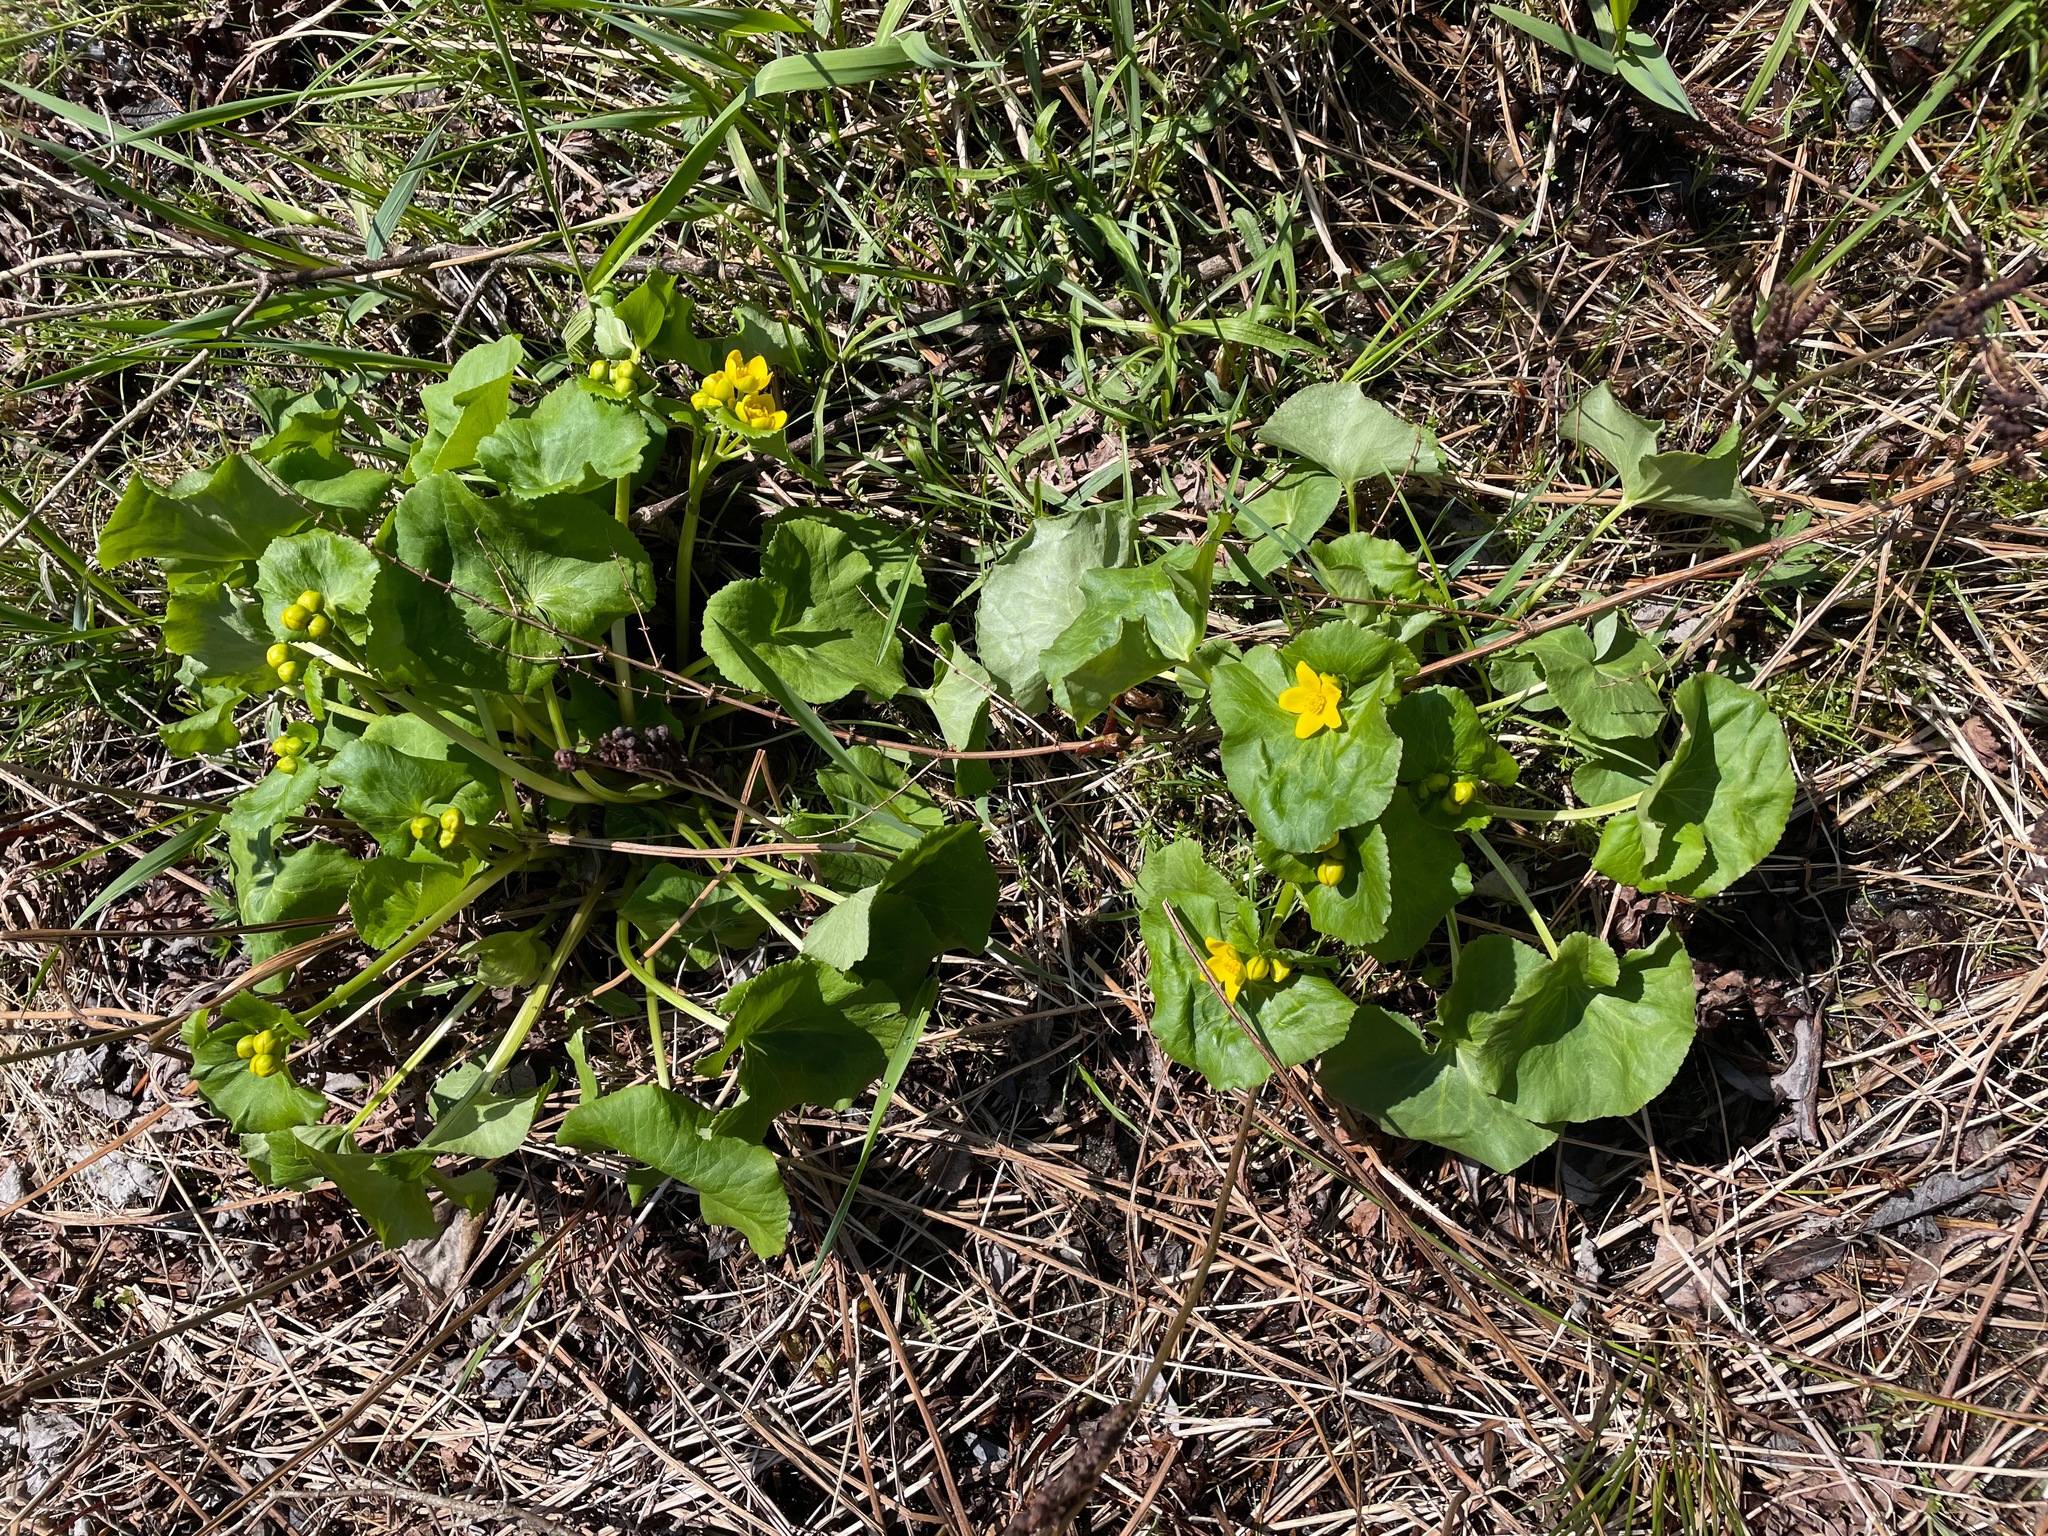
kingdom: Plantae
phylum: Tracheophyta
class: Magnoliopsida
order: Ranunculales
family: Ranunculaceae
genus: Caltha
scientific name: Caltha palustris
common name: Marsh marigold
